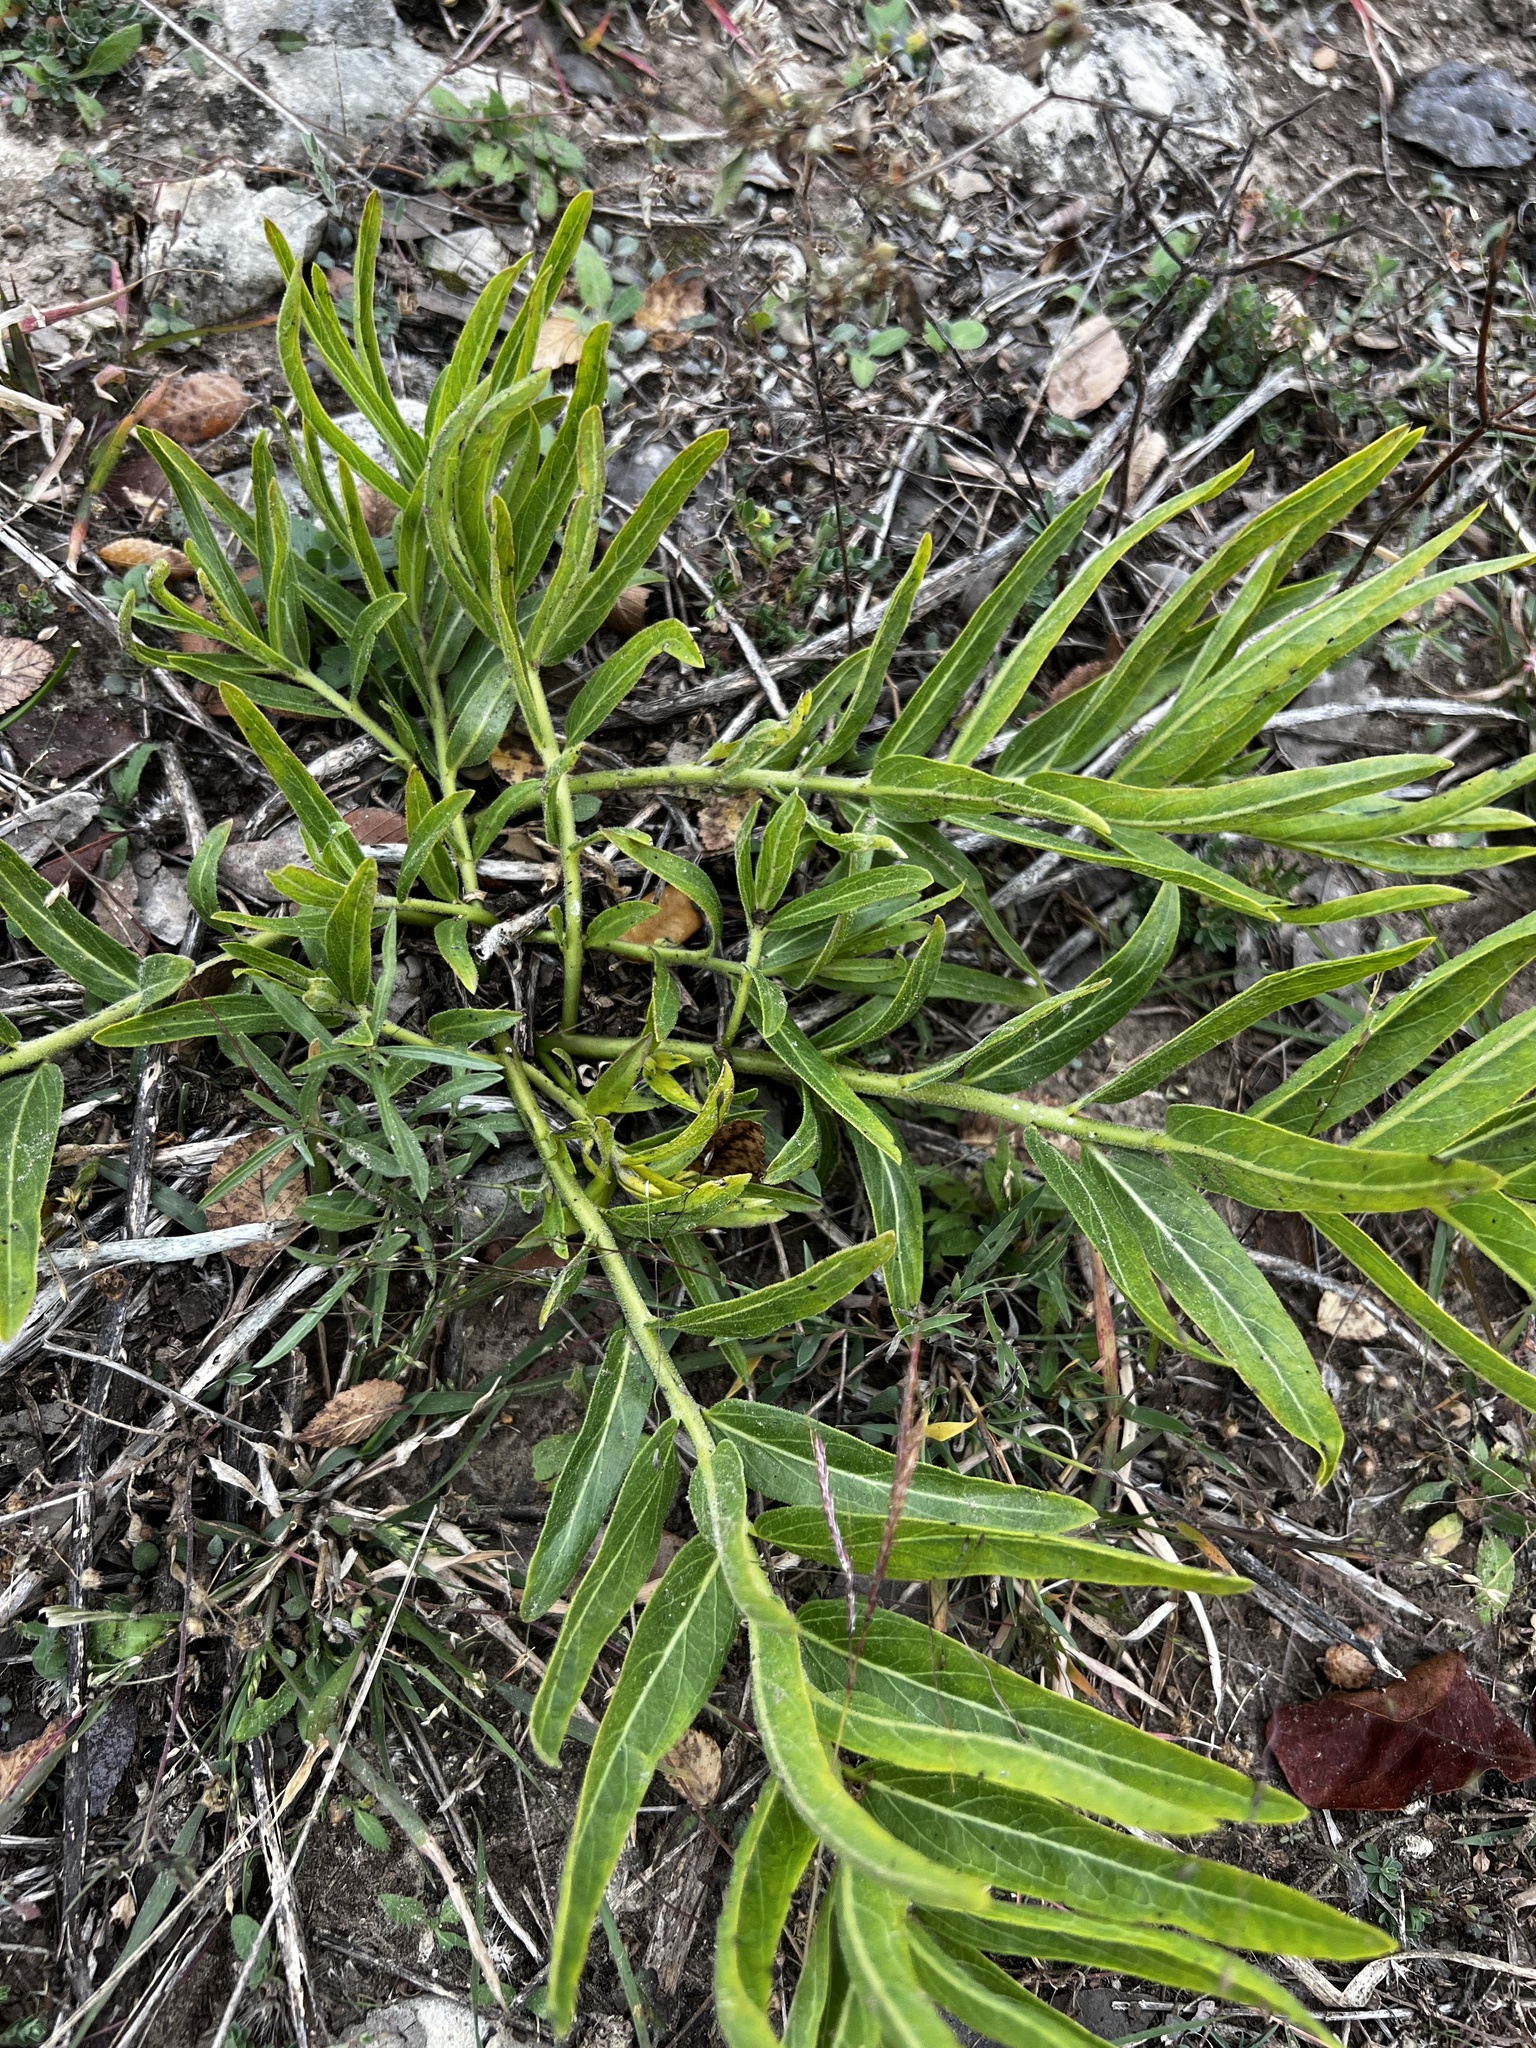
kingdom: Plantae
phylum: Tracheophyta
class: Magnoliopsida
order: Gentianales
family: Apocynaceae
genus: Asclepias
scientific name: Asclepias asperula
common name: Antelope horns
